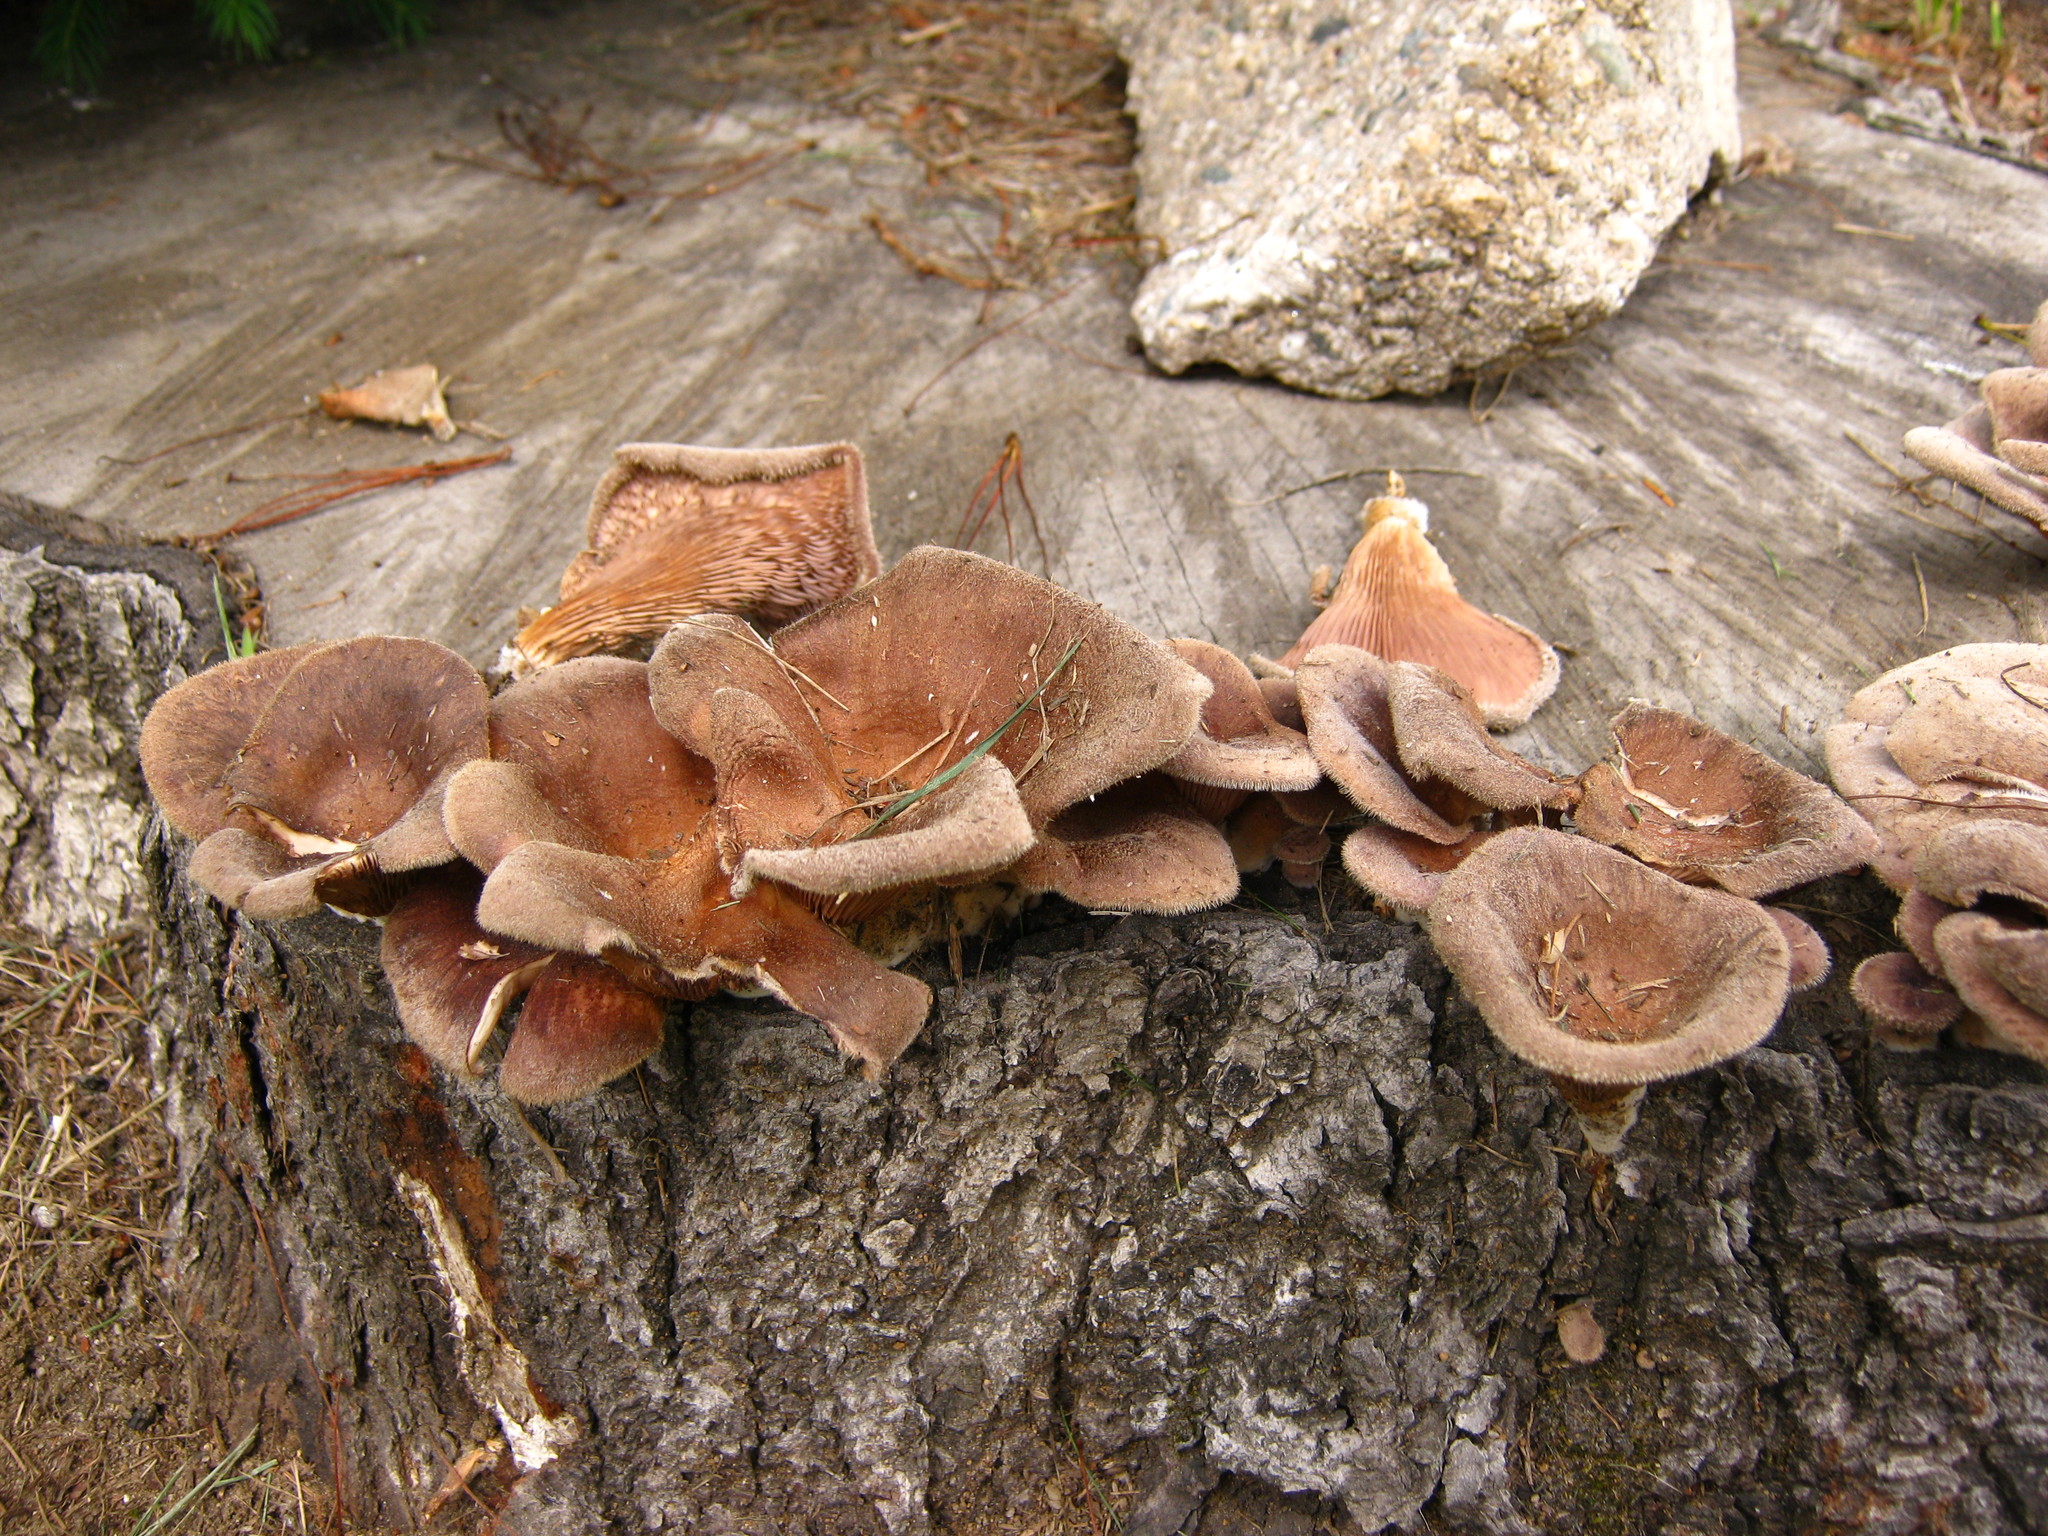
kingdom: Fungi
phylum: Basidiomycota
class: Agaricomycetes
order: Polyporales
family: Panaceae
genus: Panus
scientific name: Panus neostrigosus
